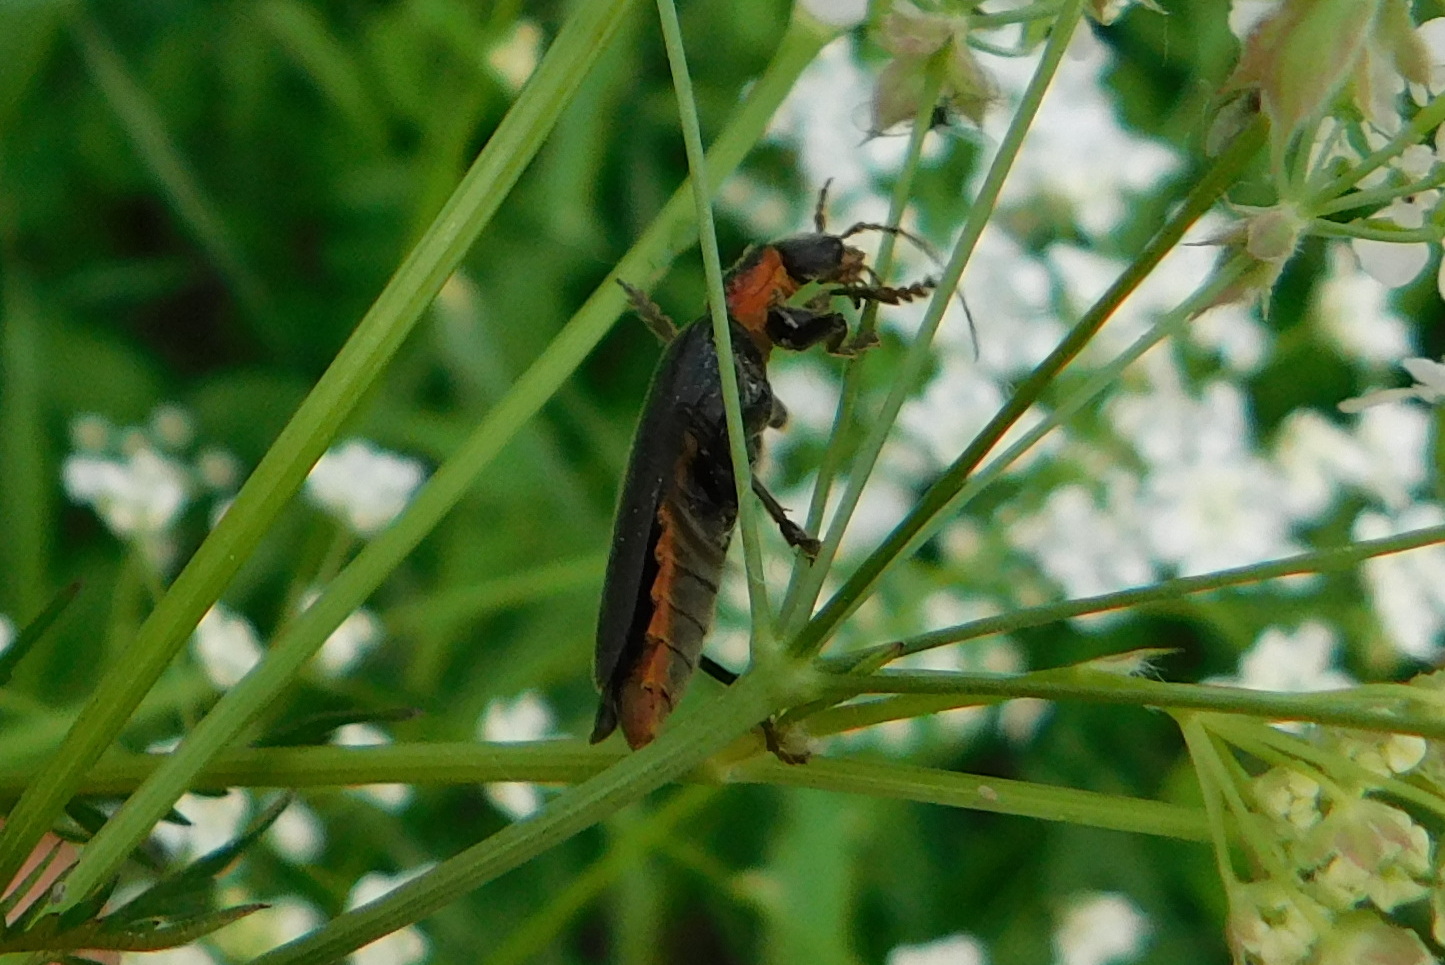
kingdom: Animalia
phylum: Arthropoda
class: Insecta
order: Coleoptera
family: Cantharidae
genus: Cantharis
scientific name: Cantharis fusca
